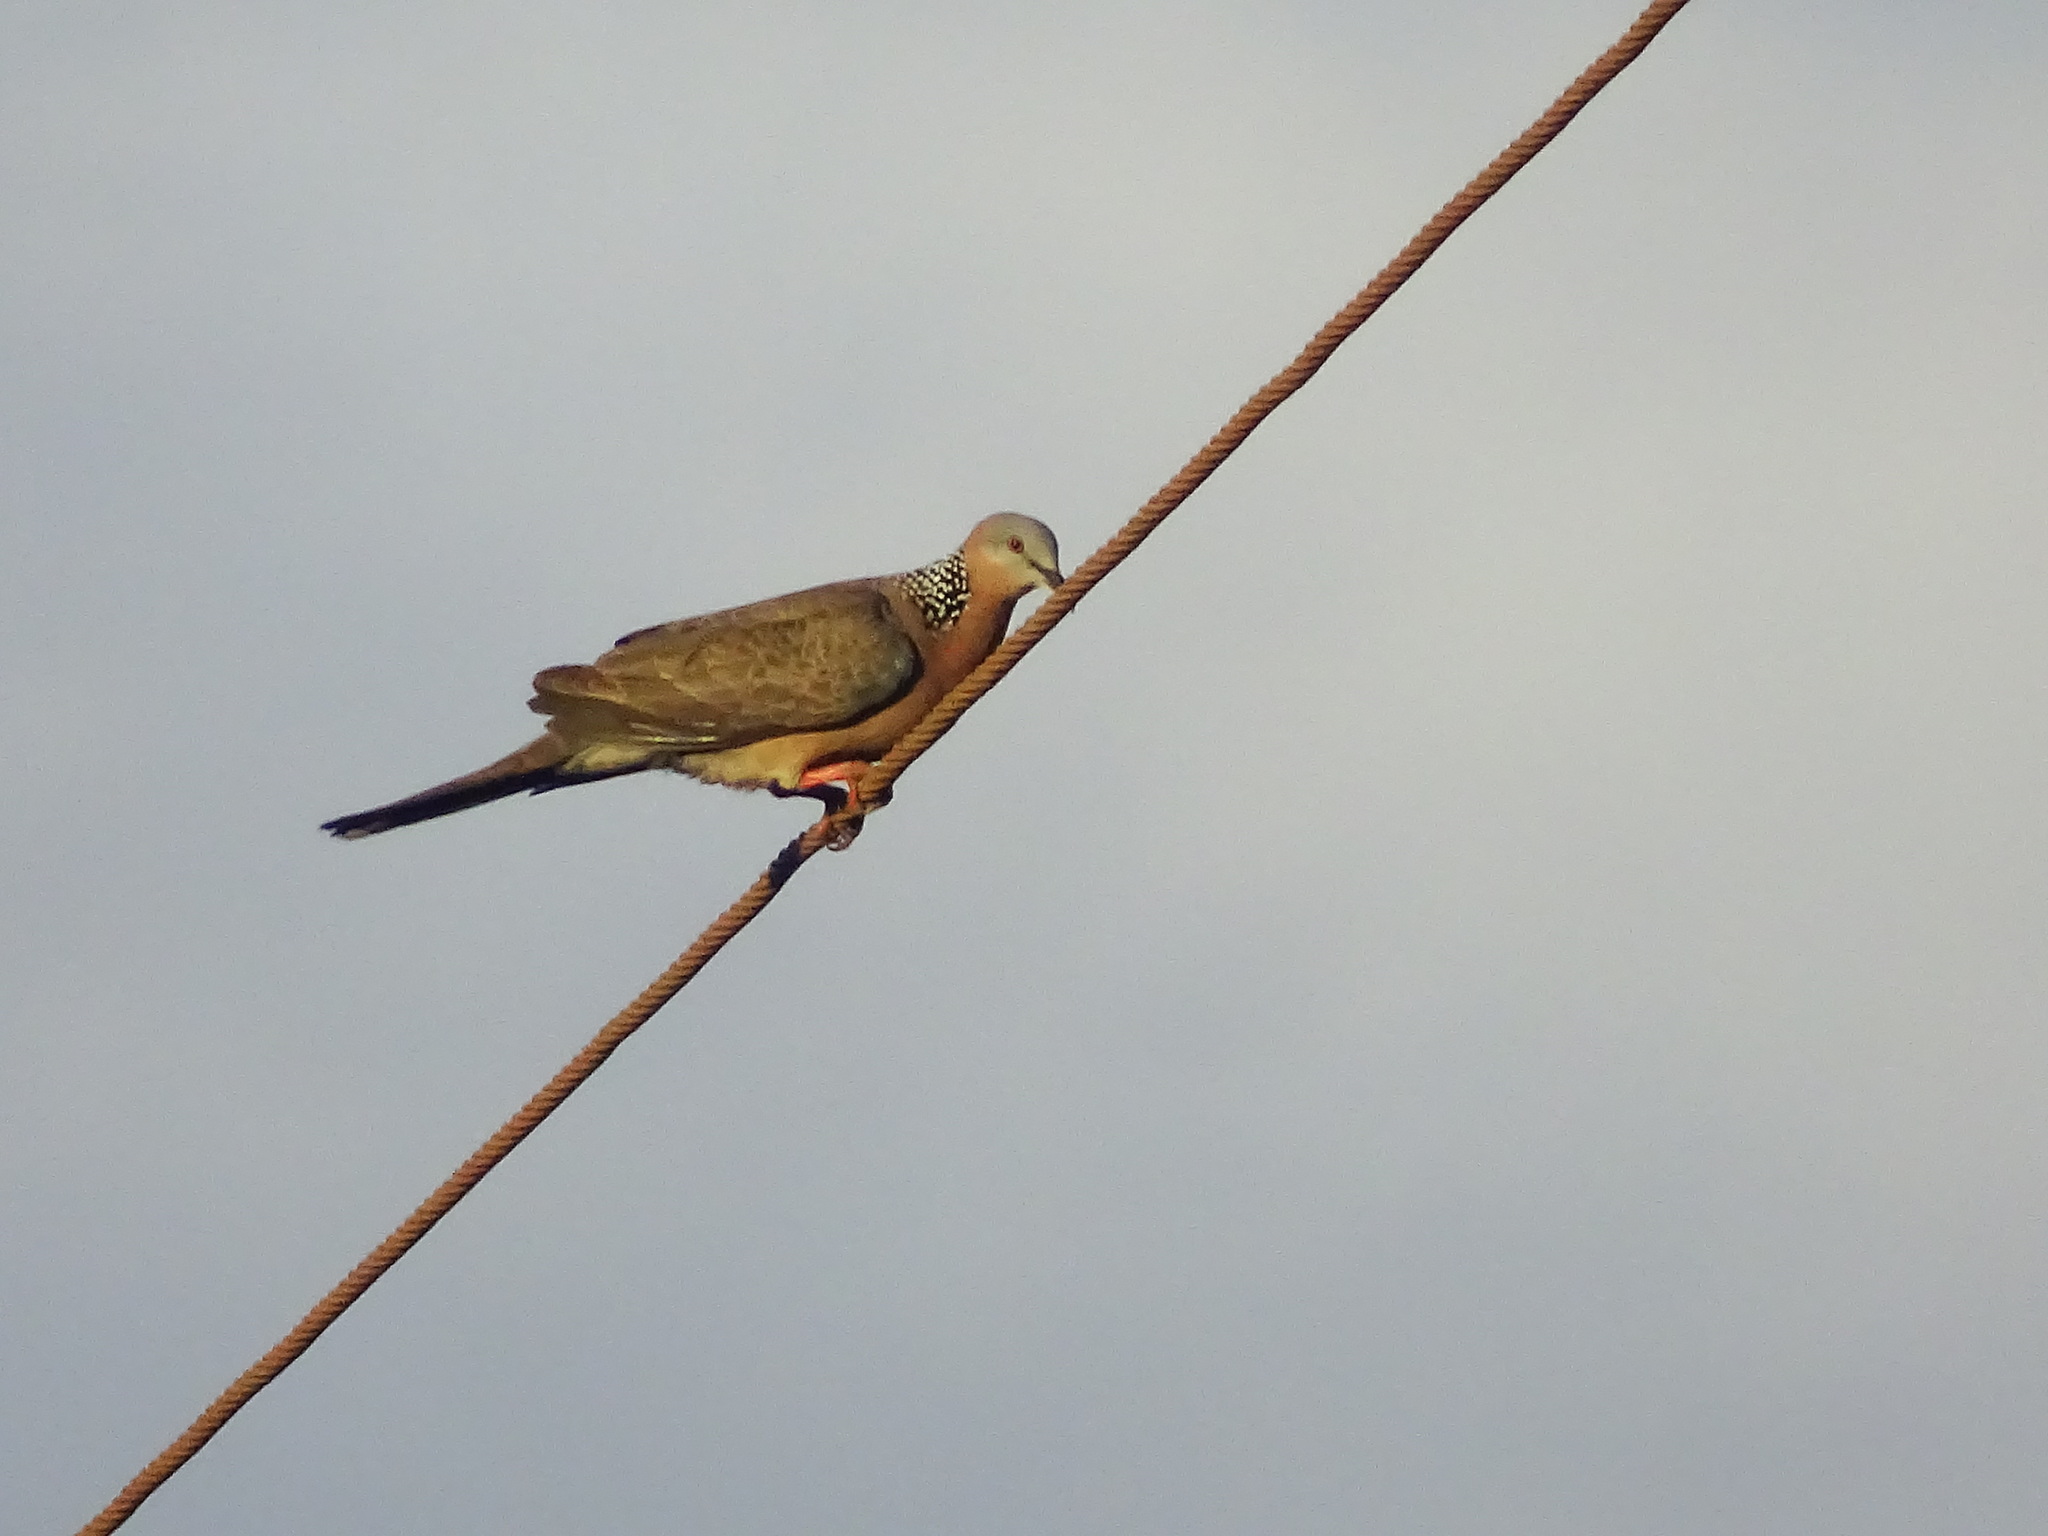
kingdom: Animalia
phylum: Chordata
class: Aves
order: Columbiformes
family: Columbidae
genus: Spilopelia
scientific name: Spilopelia chinensis
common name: Spotted dove
